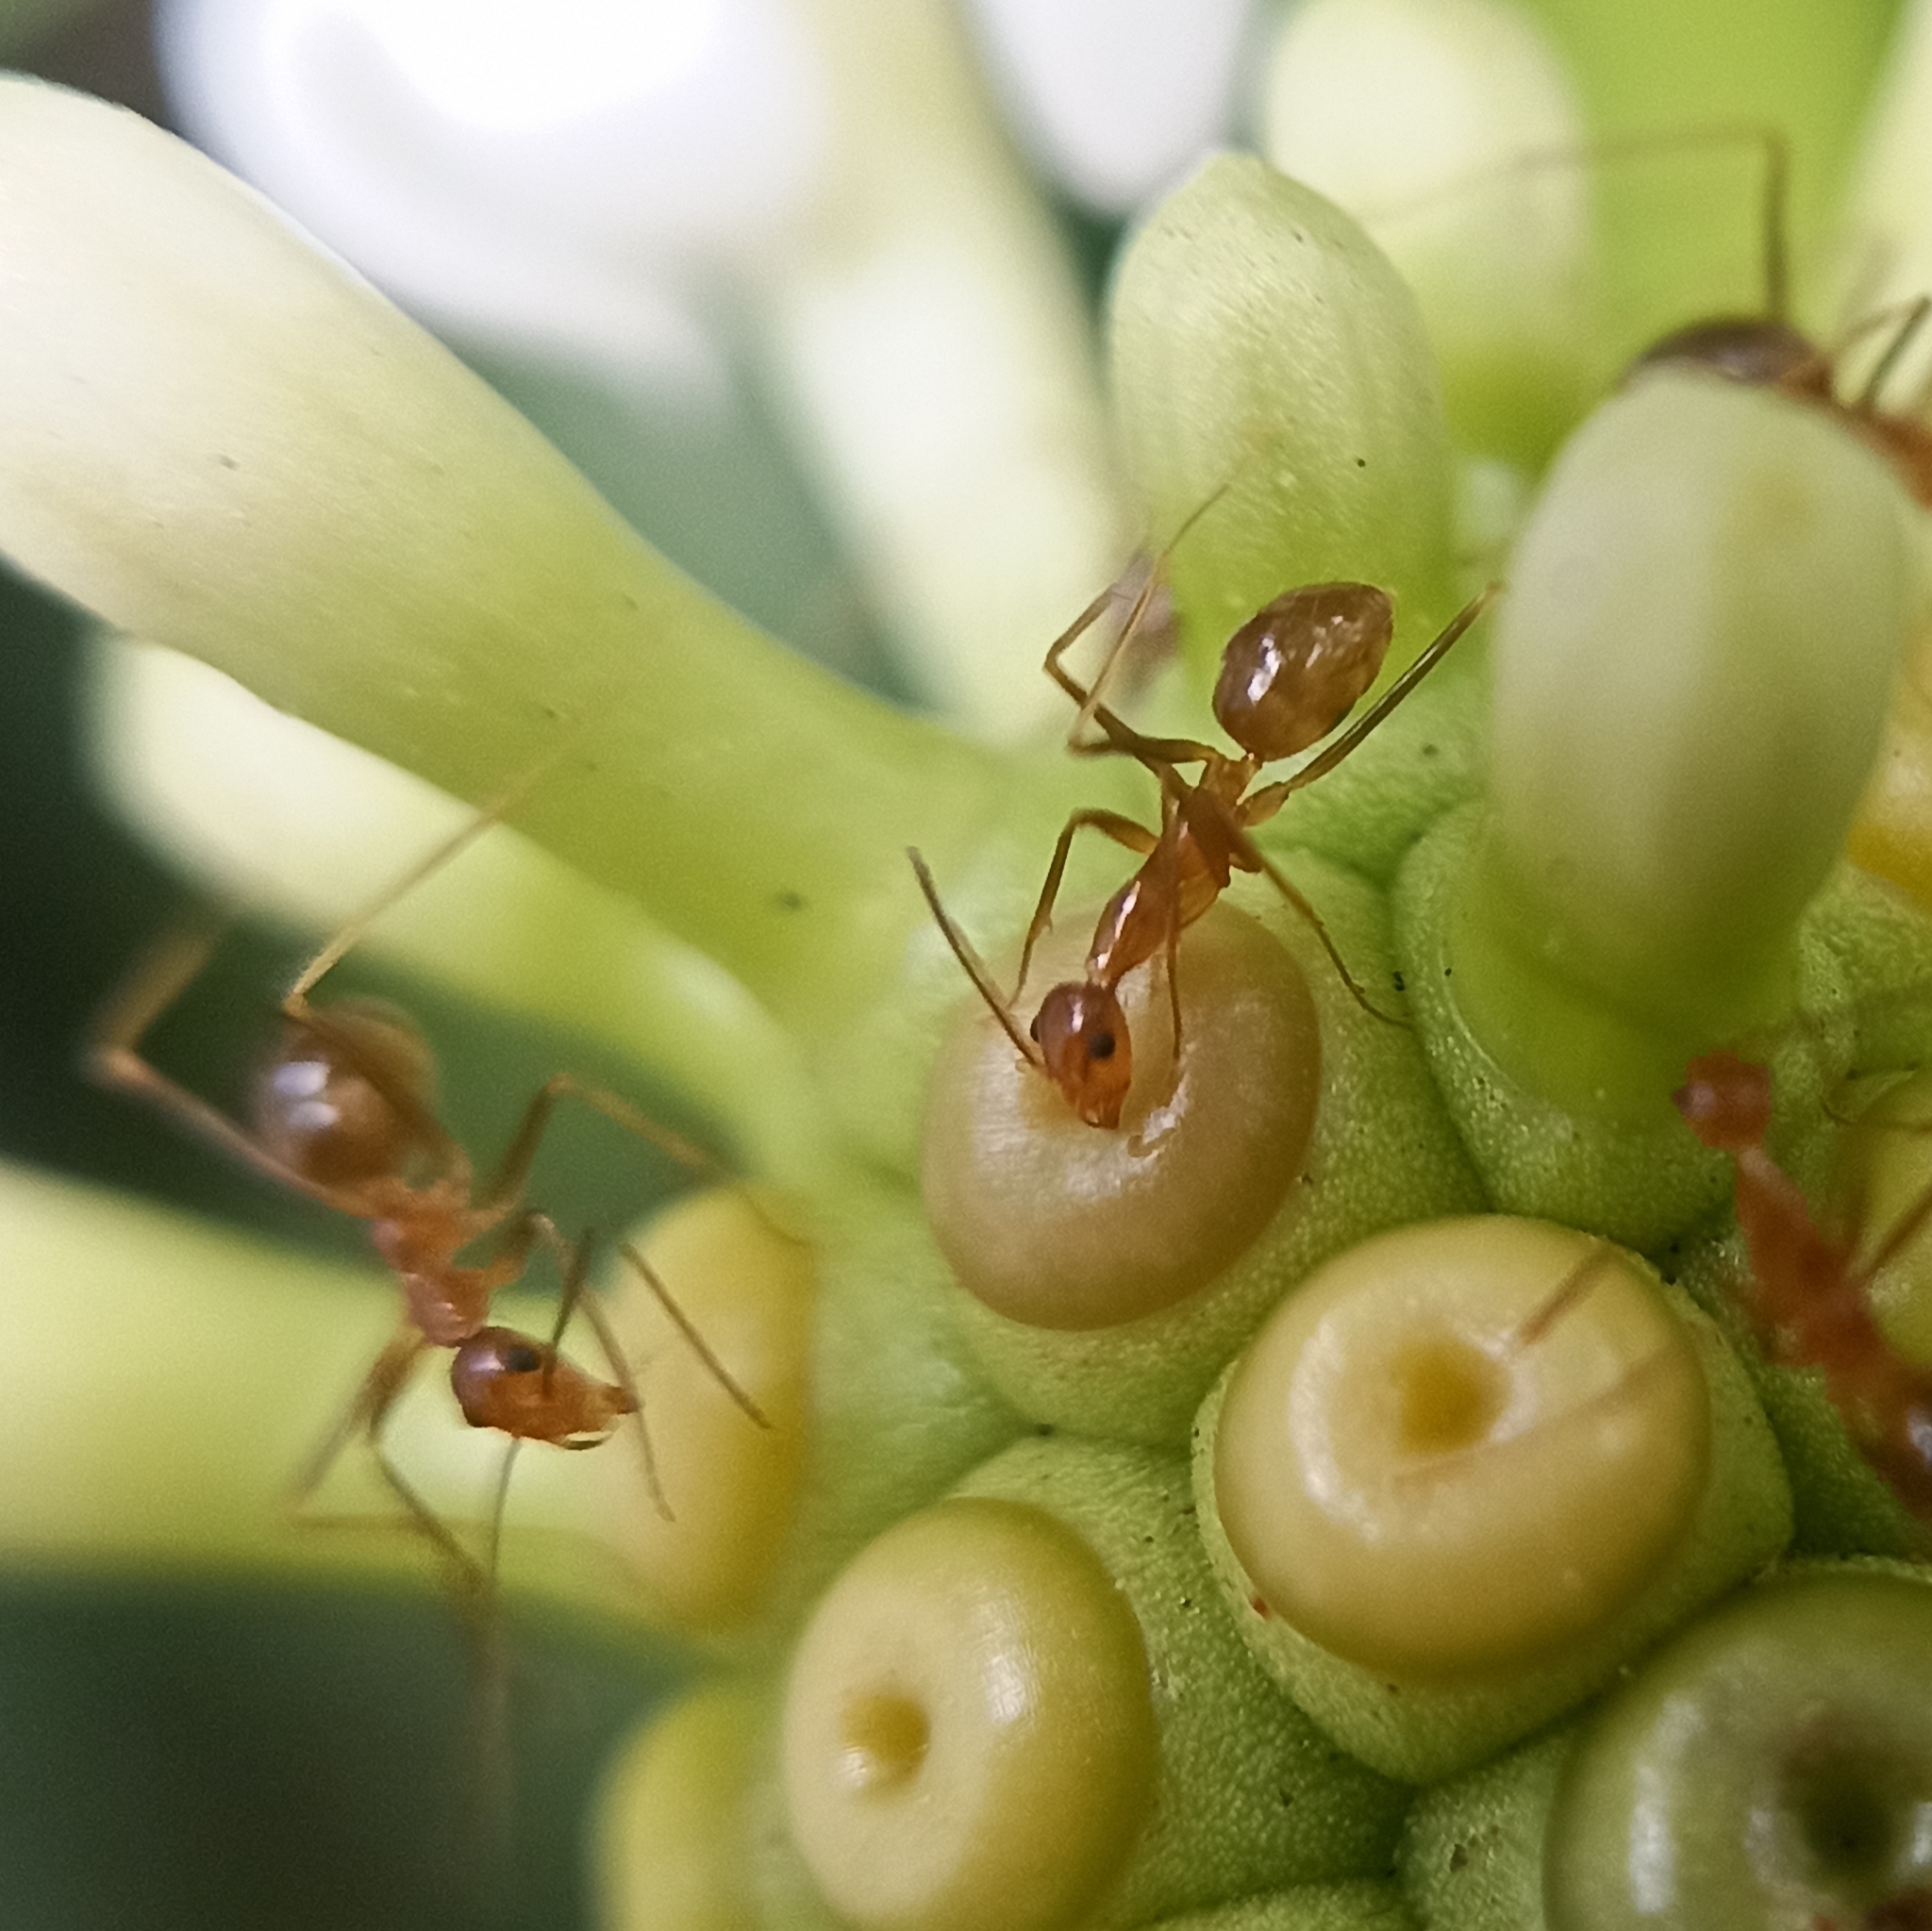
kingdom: Animalia
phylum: Arthropoda
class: Insecta
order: Hymenoptera
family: Formicidae
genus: Anoplolepis
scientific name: Anoplolepis gracilipes
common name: Ant
